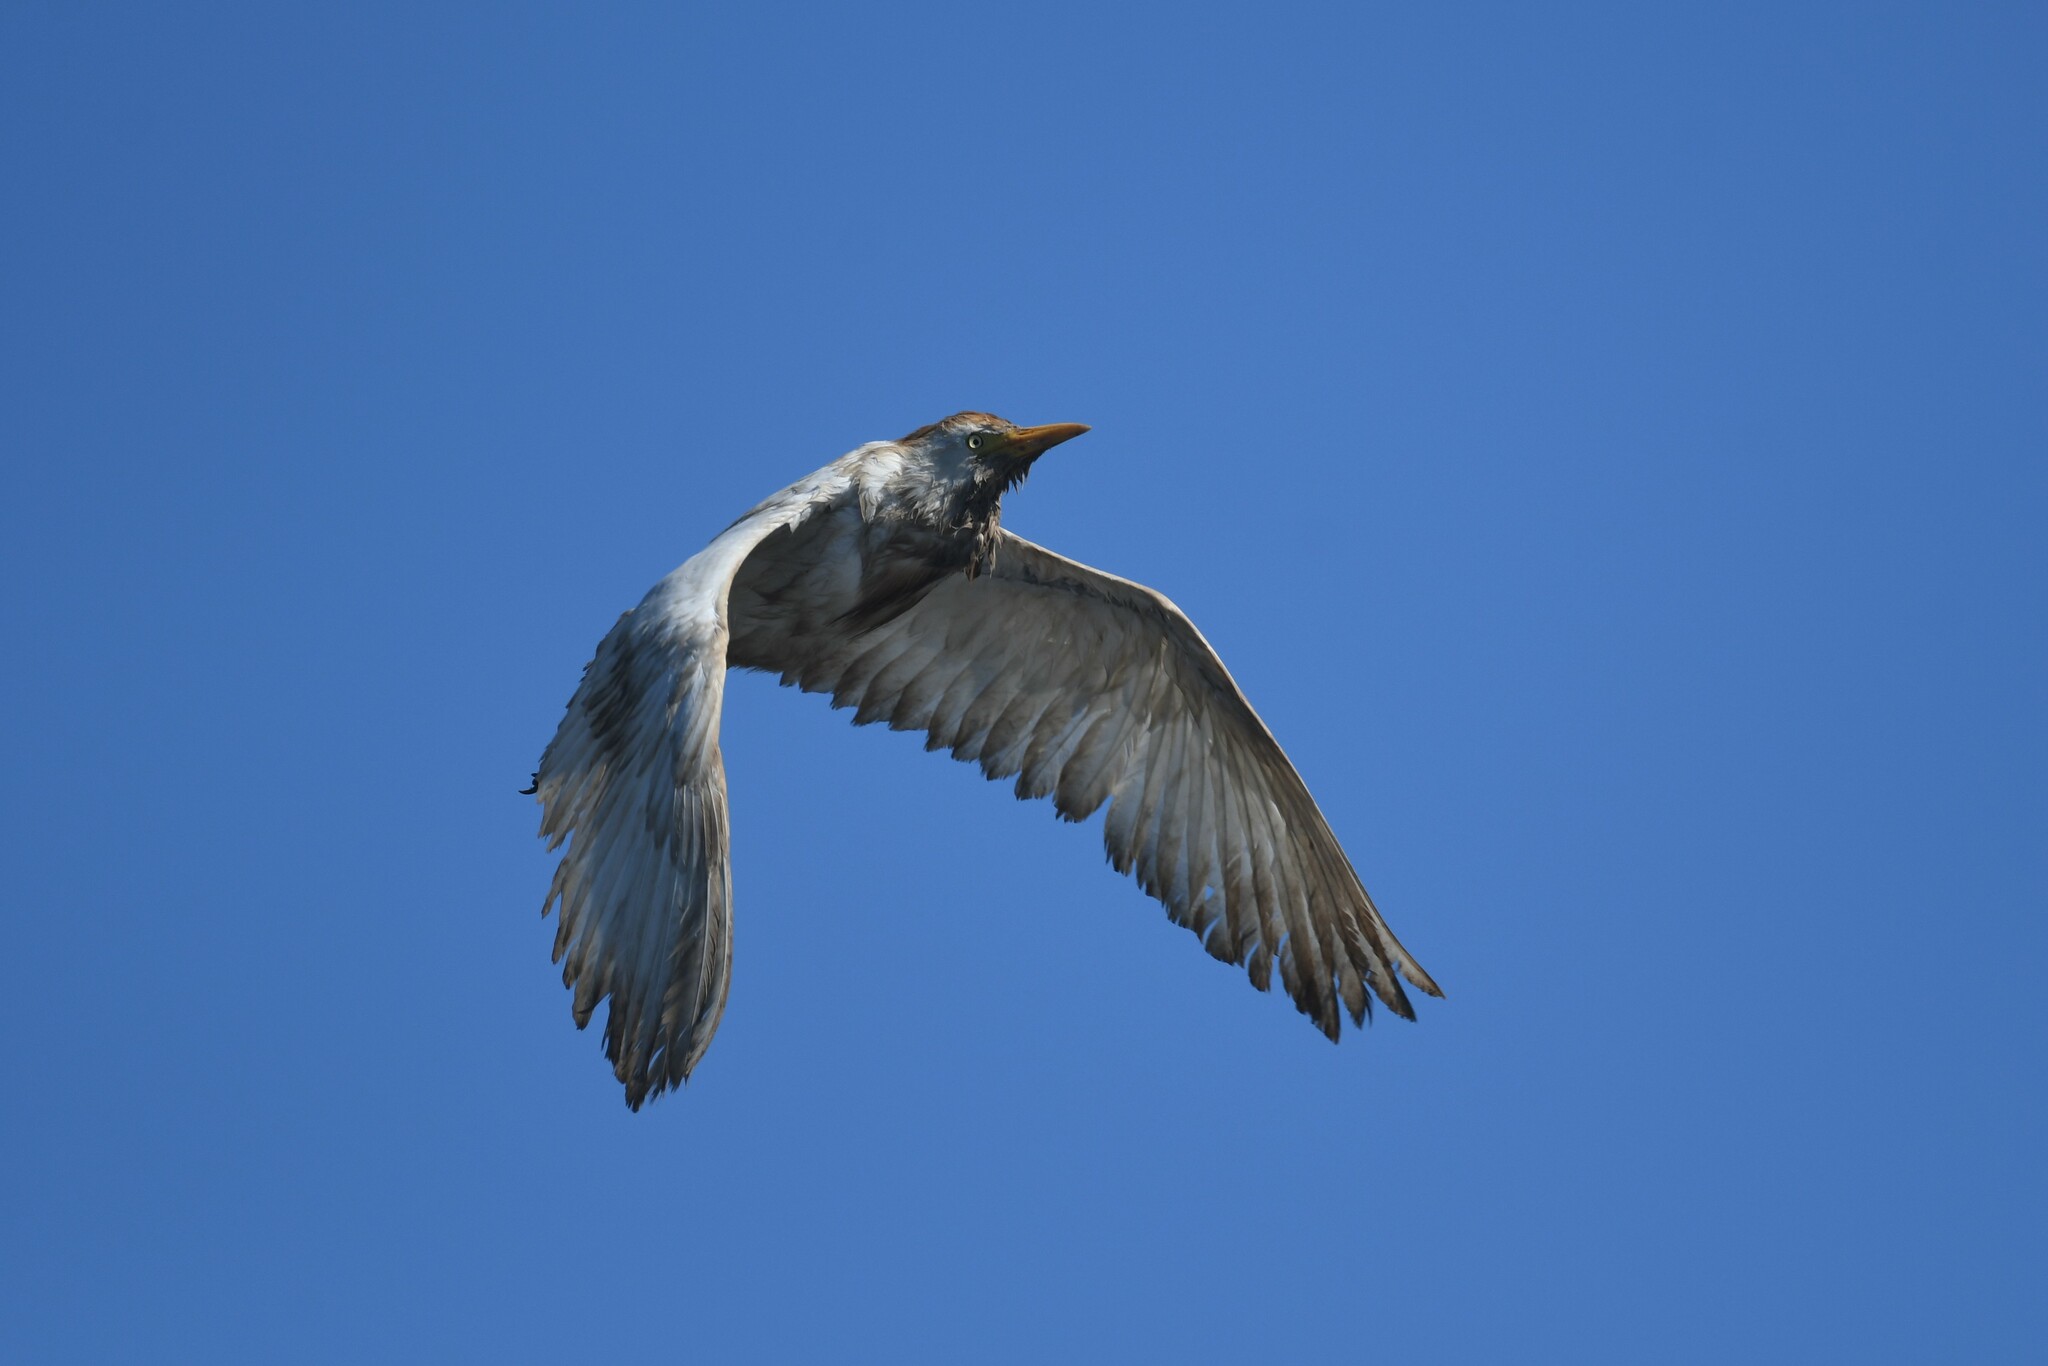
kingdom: Animalia
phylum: Chordata
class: Aves
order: Pelecaniformes
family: Ardeidae
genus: Bubulcus
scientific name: Bubulcus ibis
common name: Cattle egret
